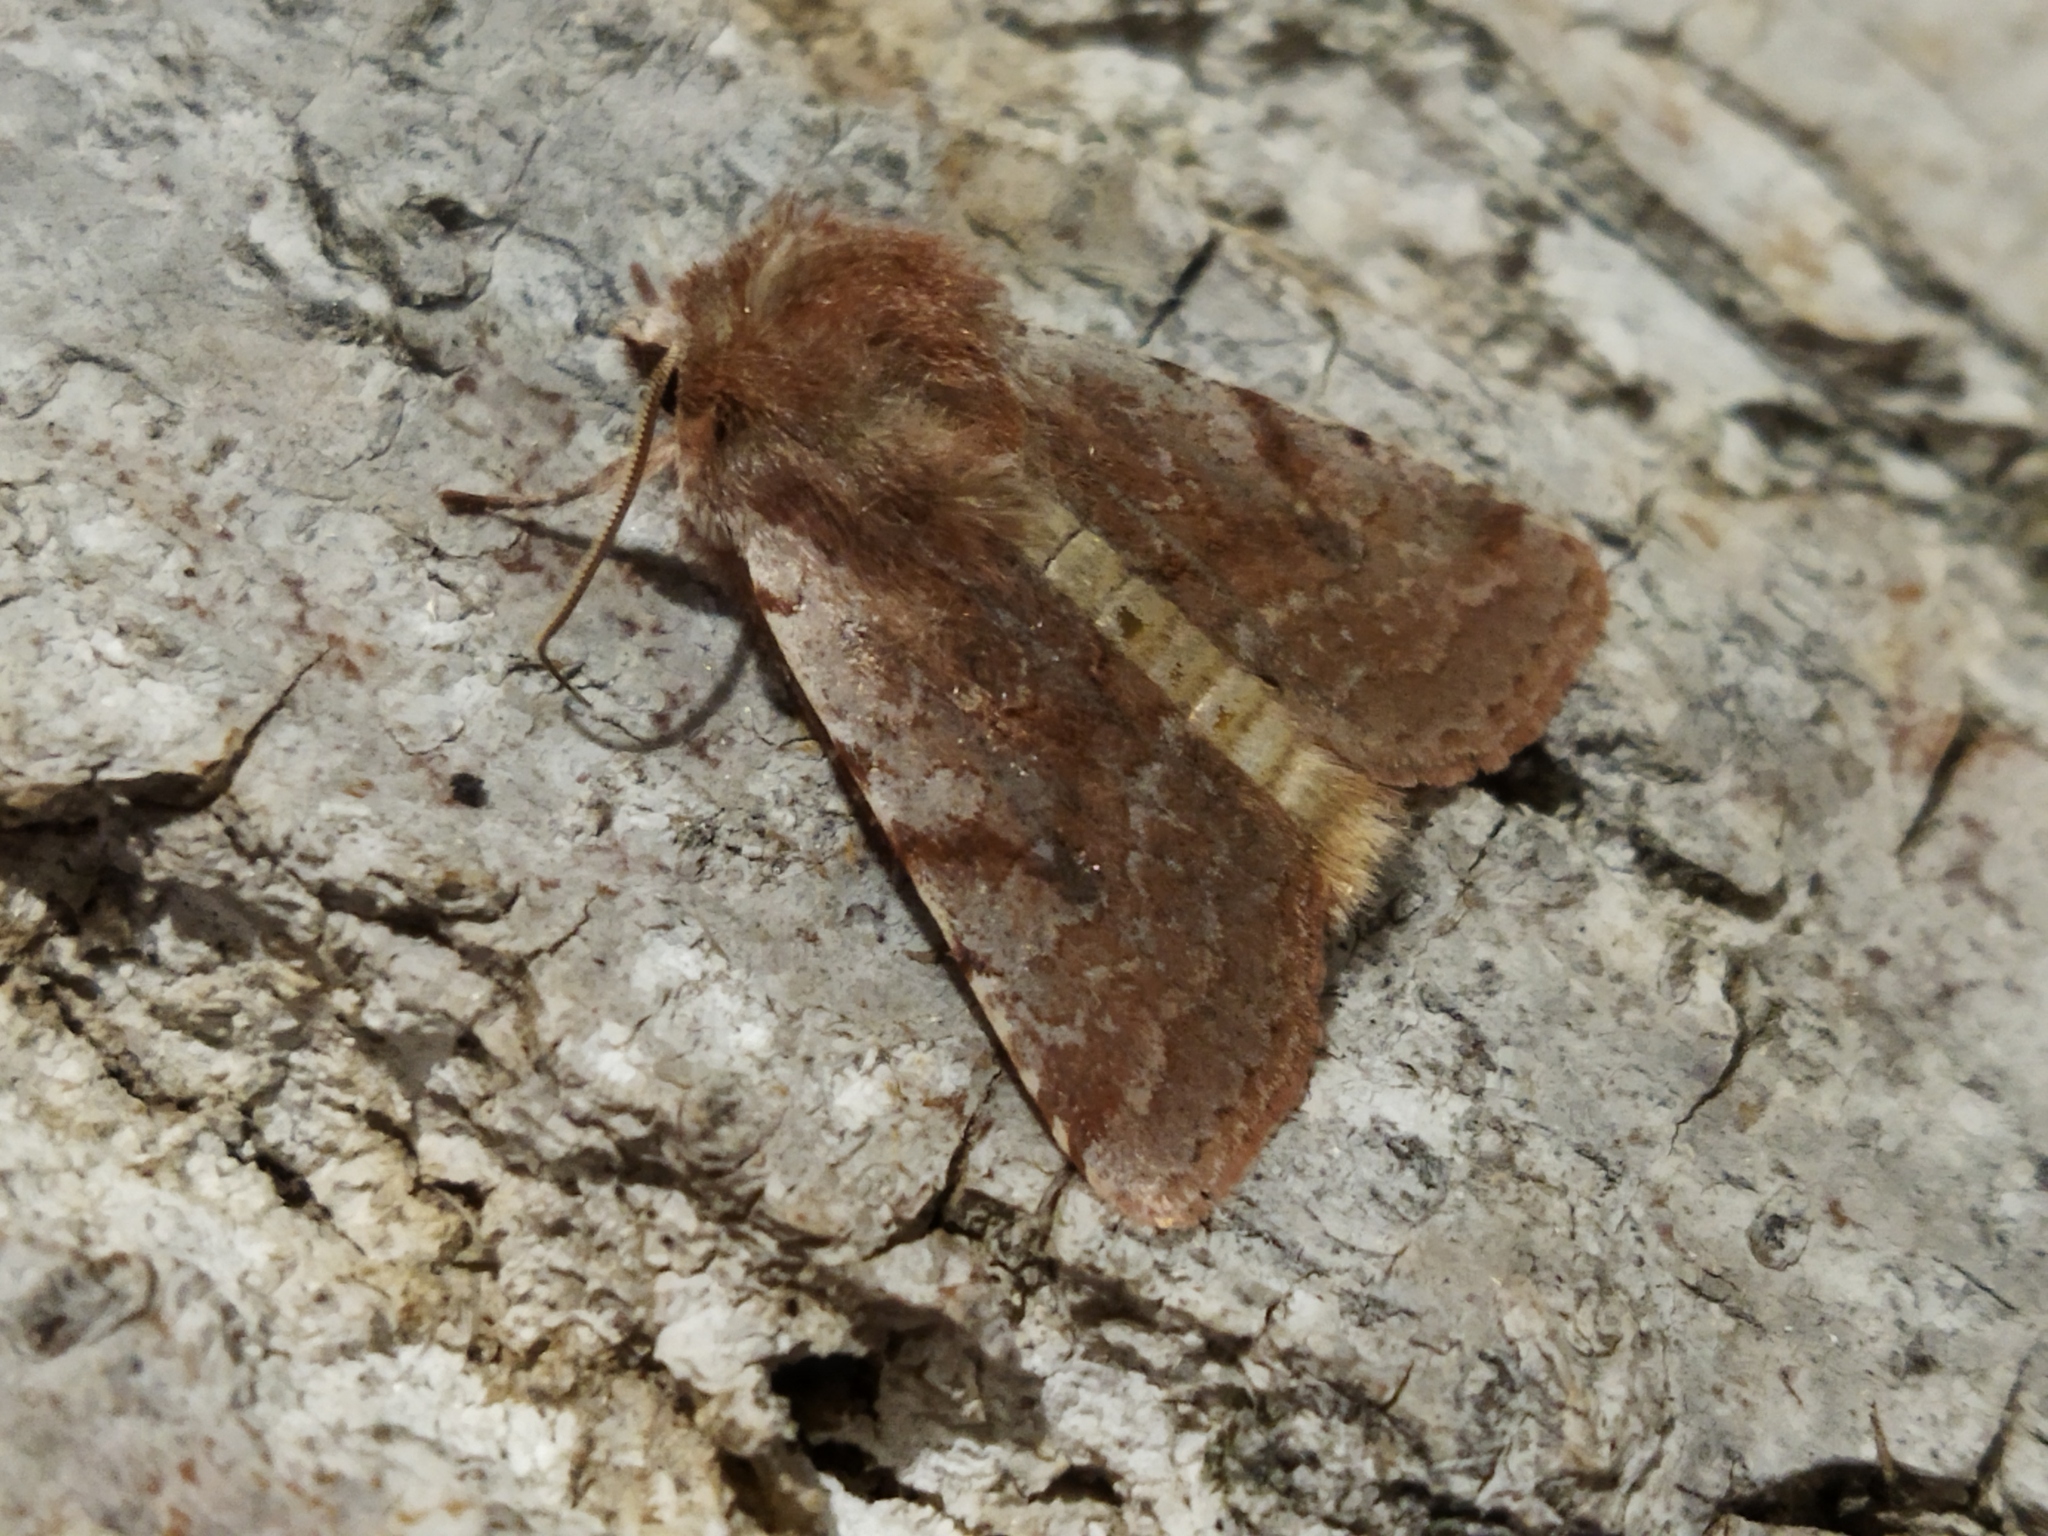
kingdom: Animalia
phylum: Arthropoda
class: Insecta
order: Lepidoptera
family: Noctuidae
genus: Cerastis
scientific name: Cerastis rubricosa
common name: Red chestnut
